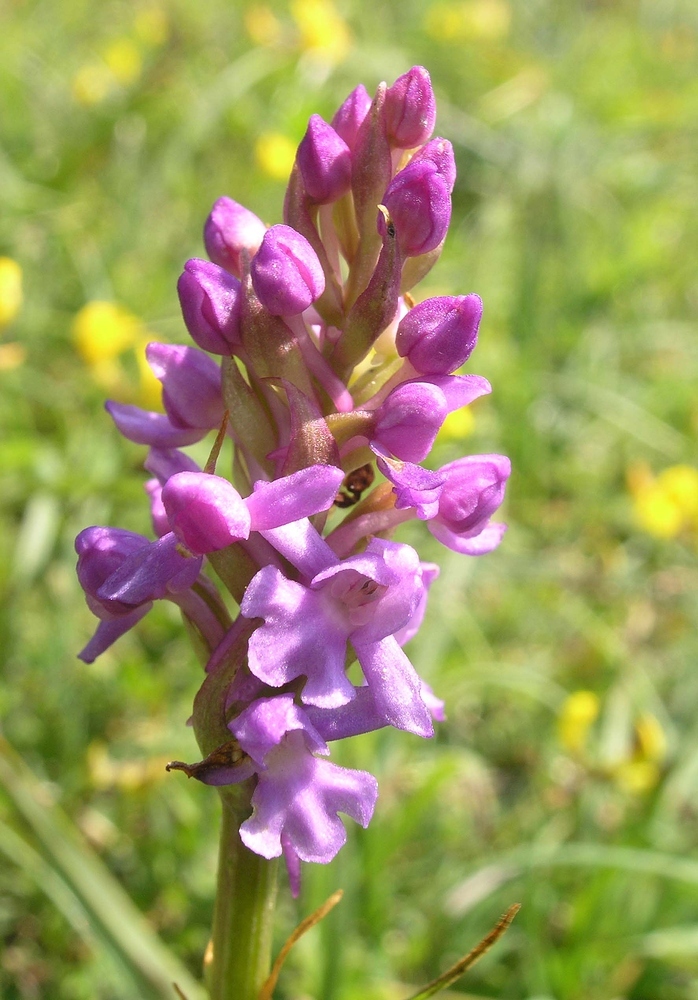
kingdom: Plantae
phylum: Tracheophyta
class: Liliopsida
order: Asparagales
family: Orchidaceae
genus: Gymnadenia
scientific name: Gymnadenia conopsea
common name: Fragrant orchid
